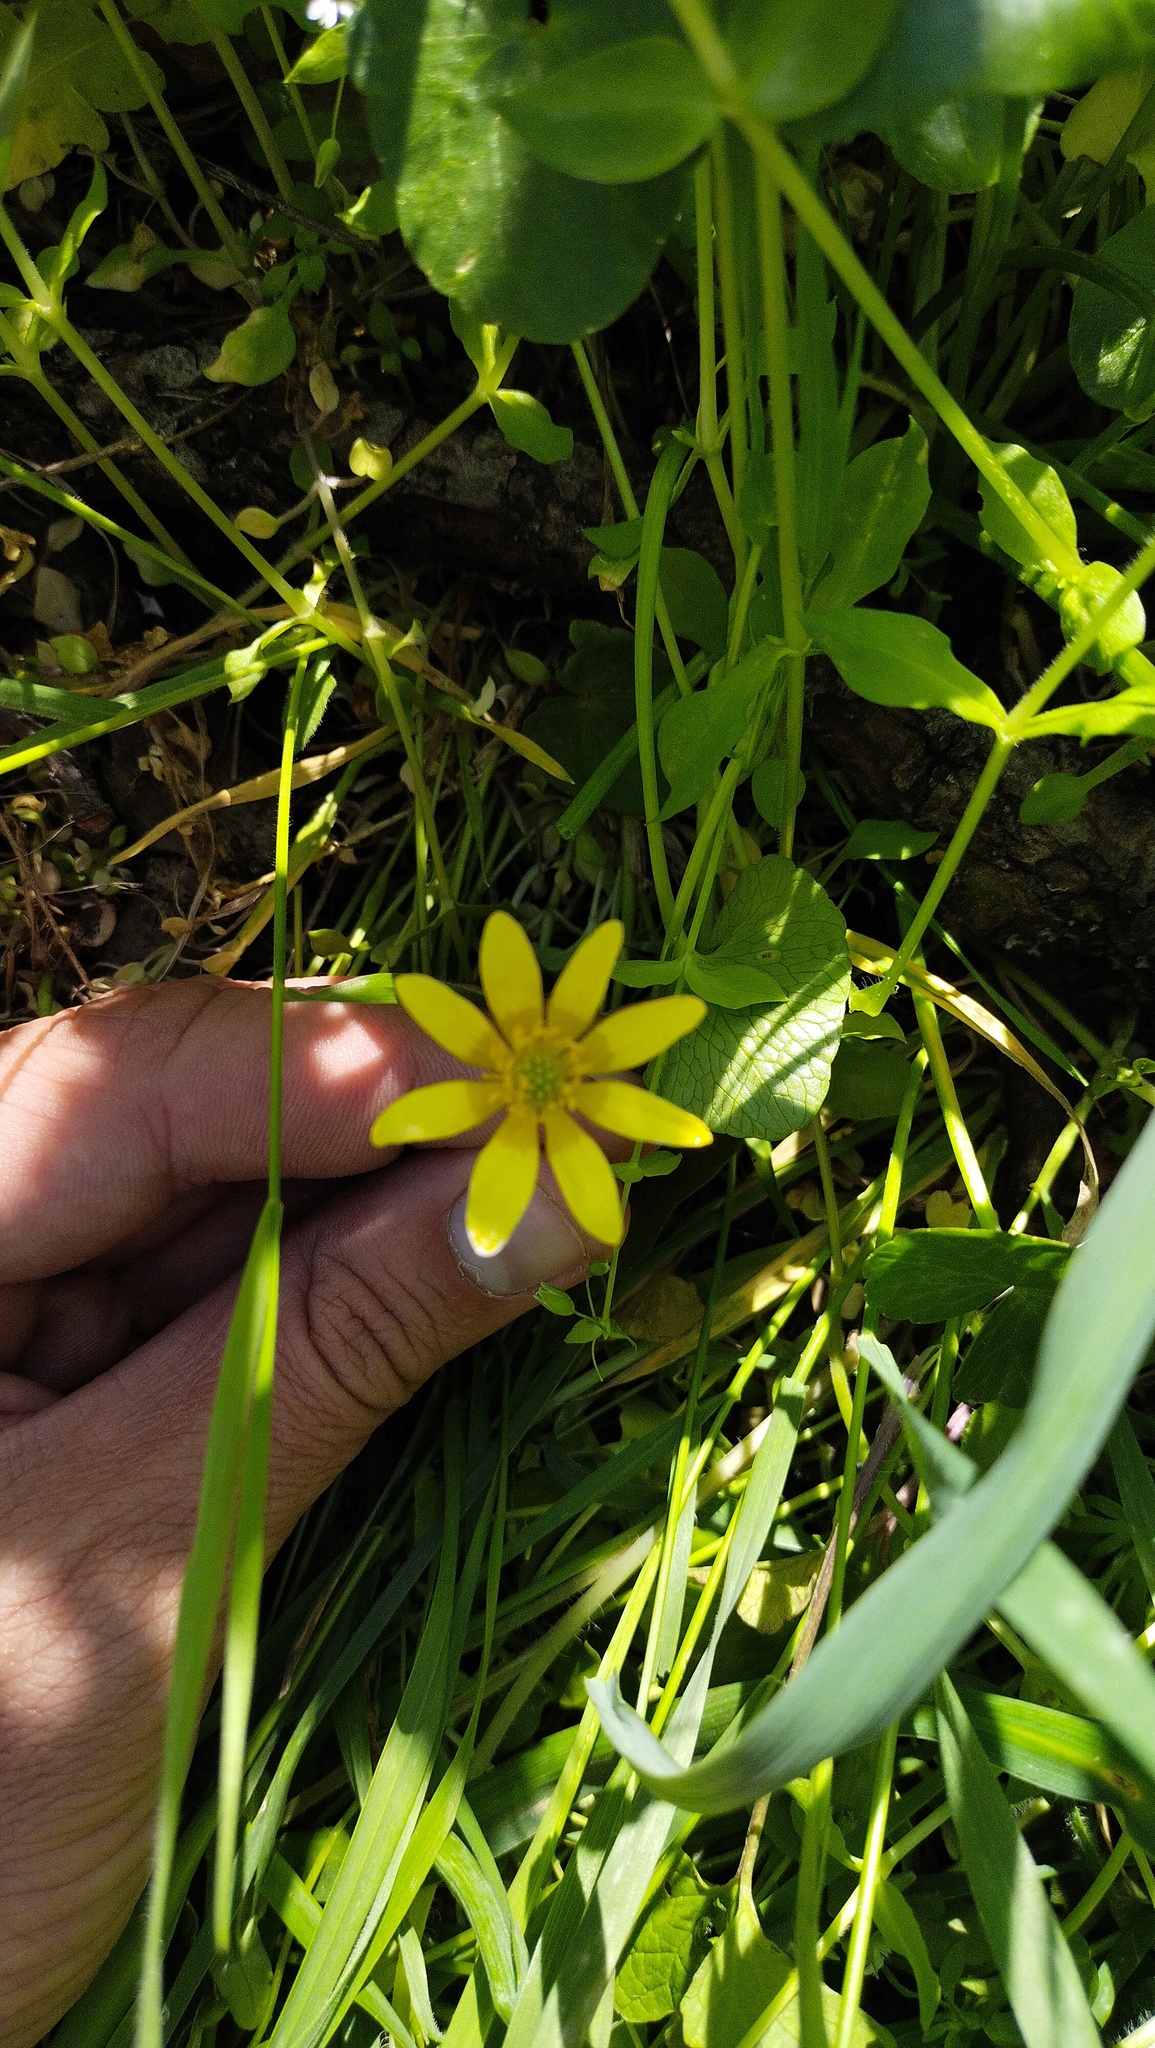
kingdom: Plantae
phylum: Tracheophyta
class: Magnoliopsida
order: Ranunculales
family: Ranunculaceae
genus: Ficaria
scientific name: Ficaria verna
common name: Lesser celandine
